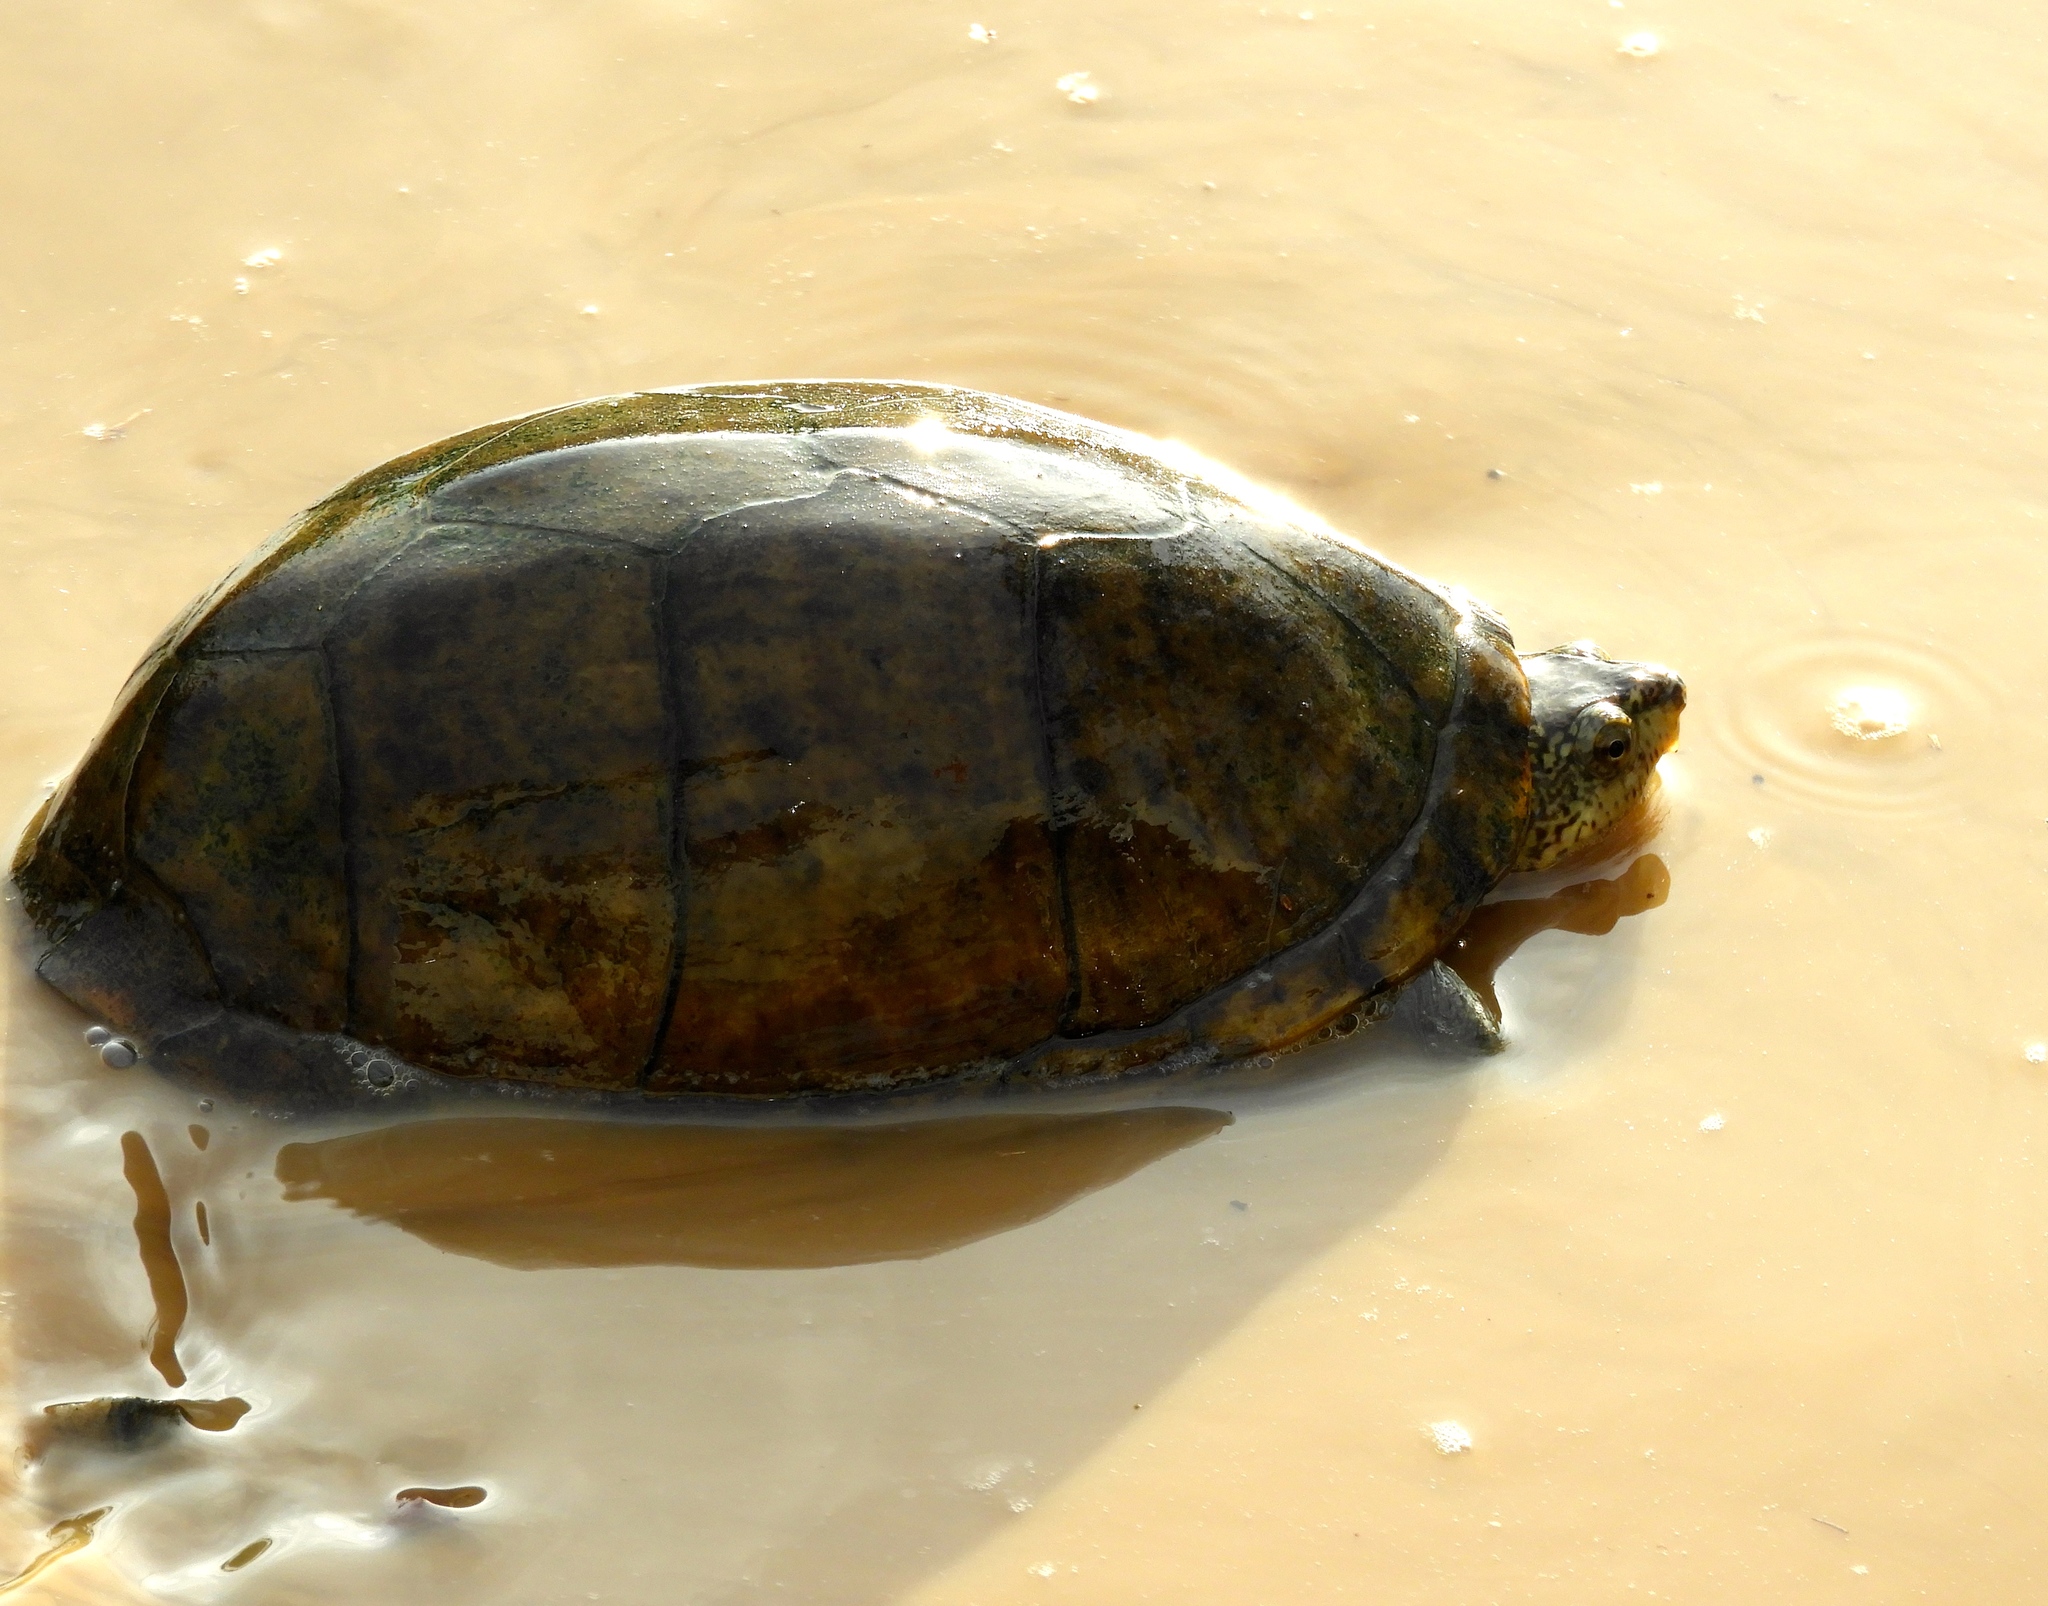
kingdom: Animalia
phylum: Chordata
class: Testudines
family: Kinosternidae
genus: Kinosternon
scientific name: Kinosternon integrum
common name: Mexican mud turtle
